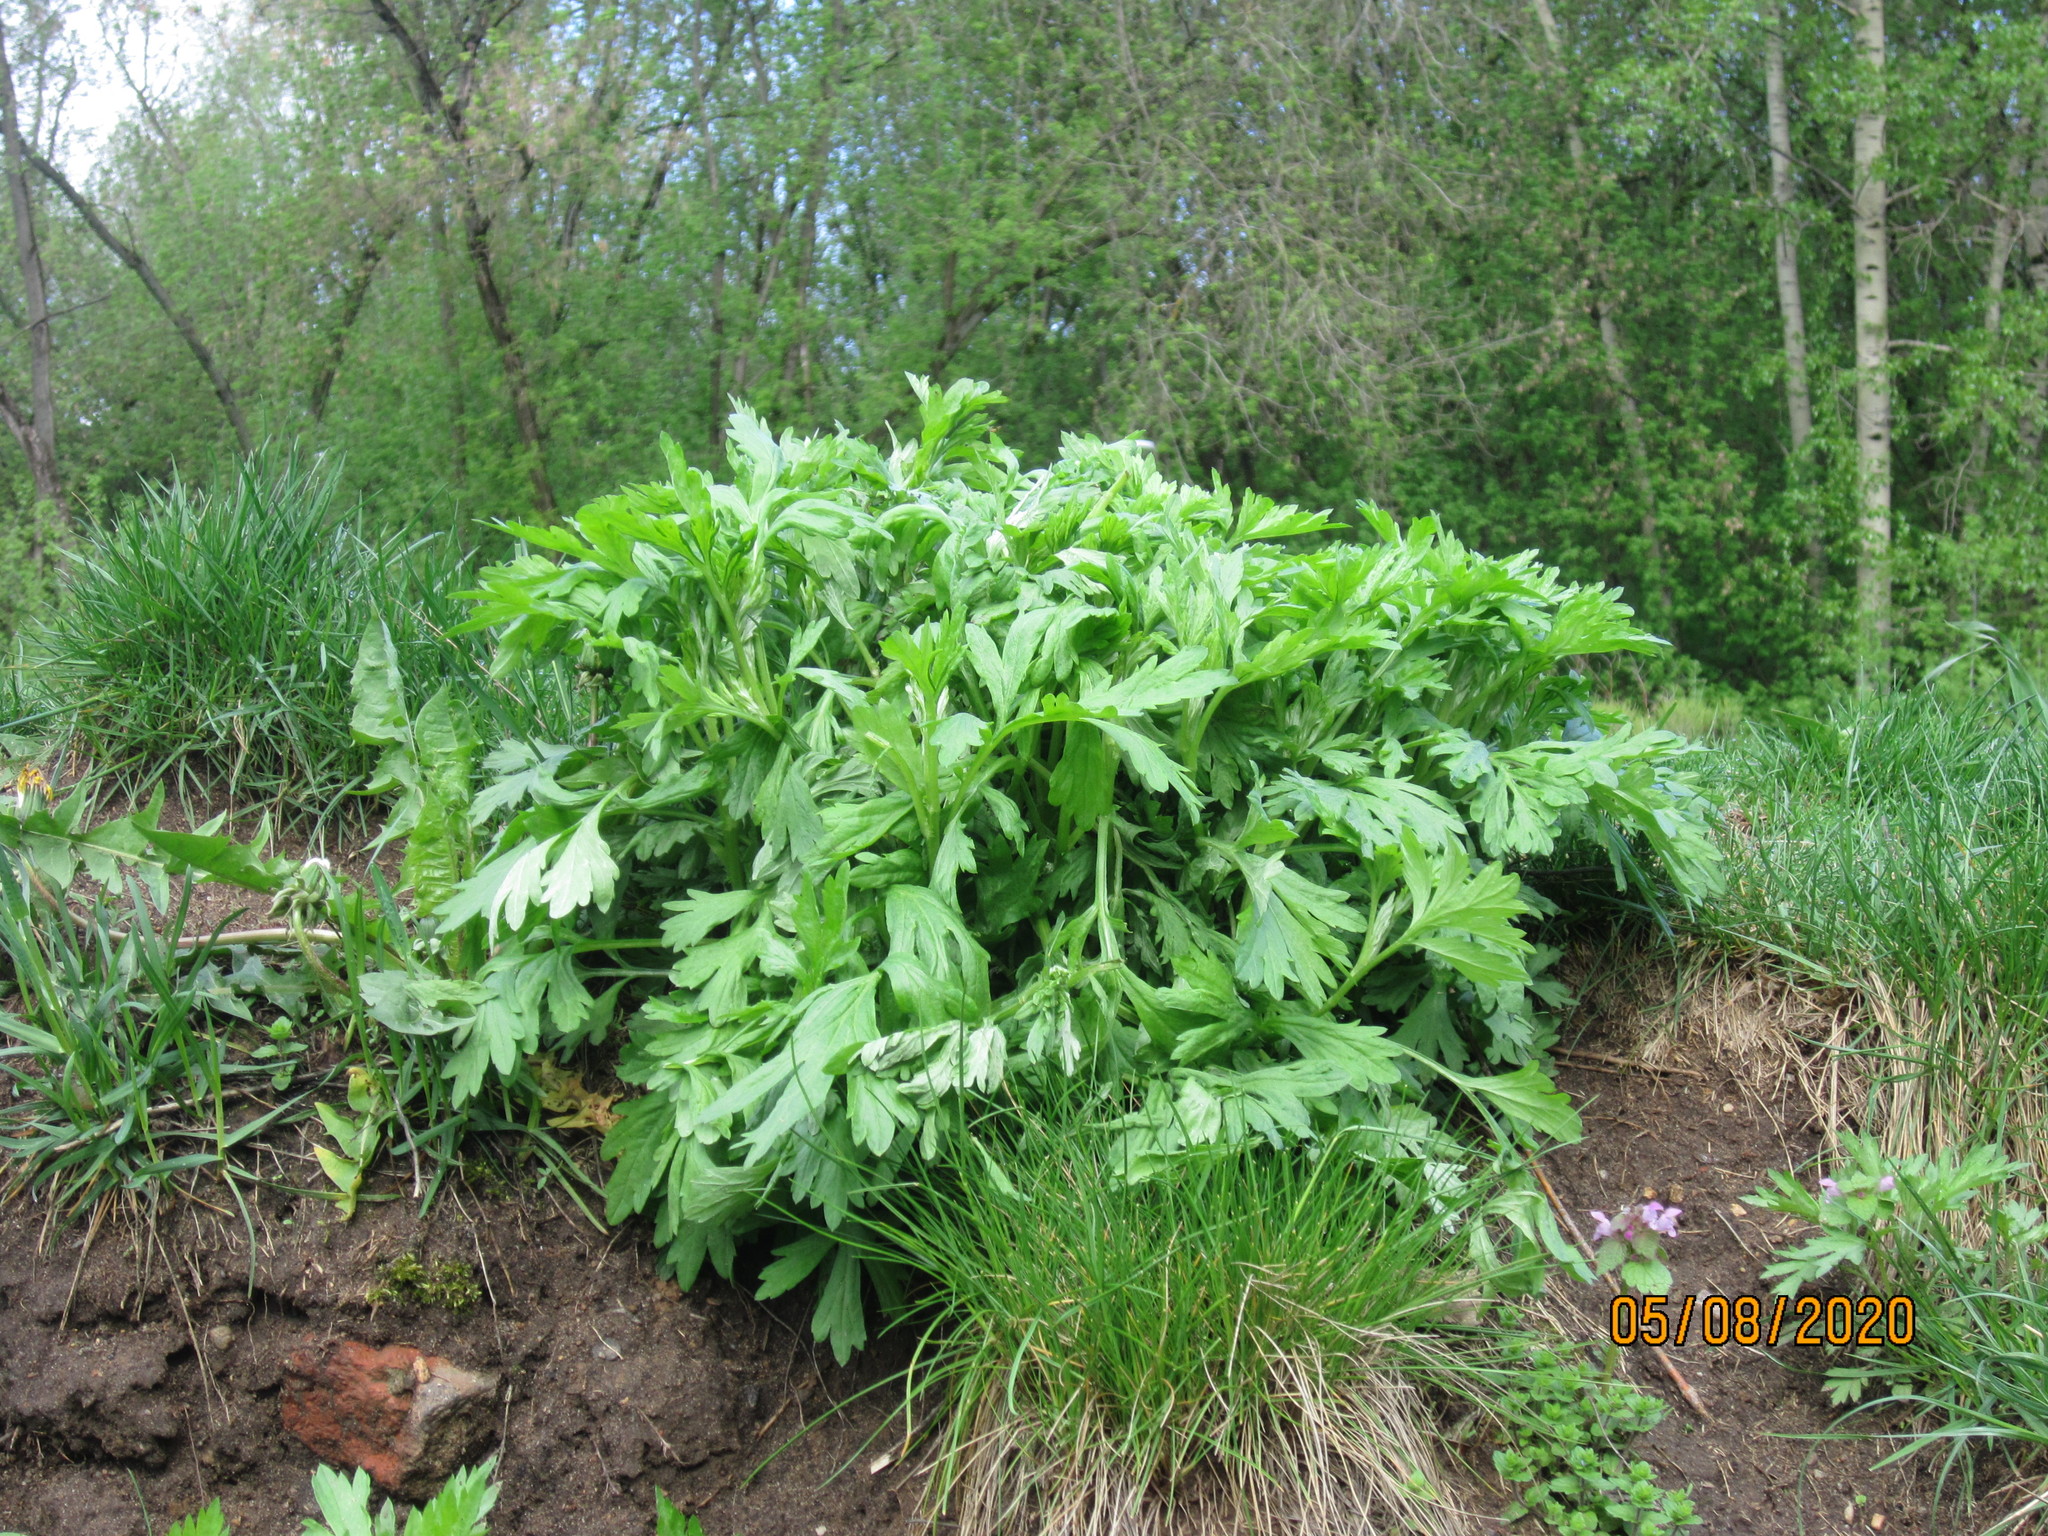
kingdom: Plantae
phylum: Tracheophyta
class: Magnoliopsida
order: Asterales
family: Asteraceae
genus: Artemisia
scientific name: Artemisia vulgaris
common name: Mugwort
